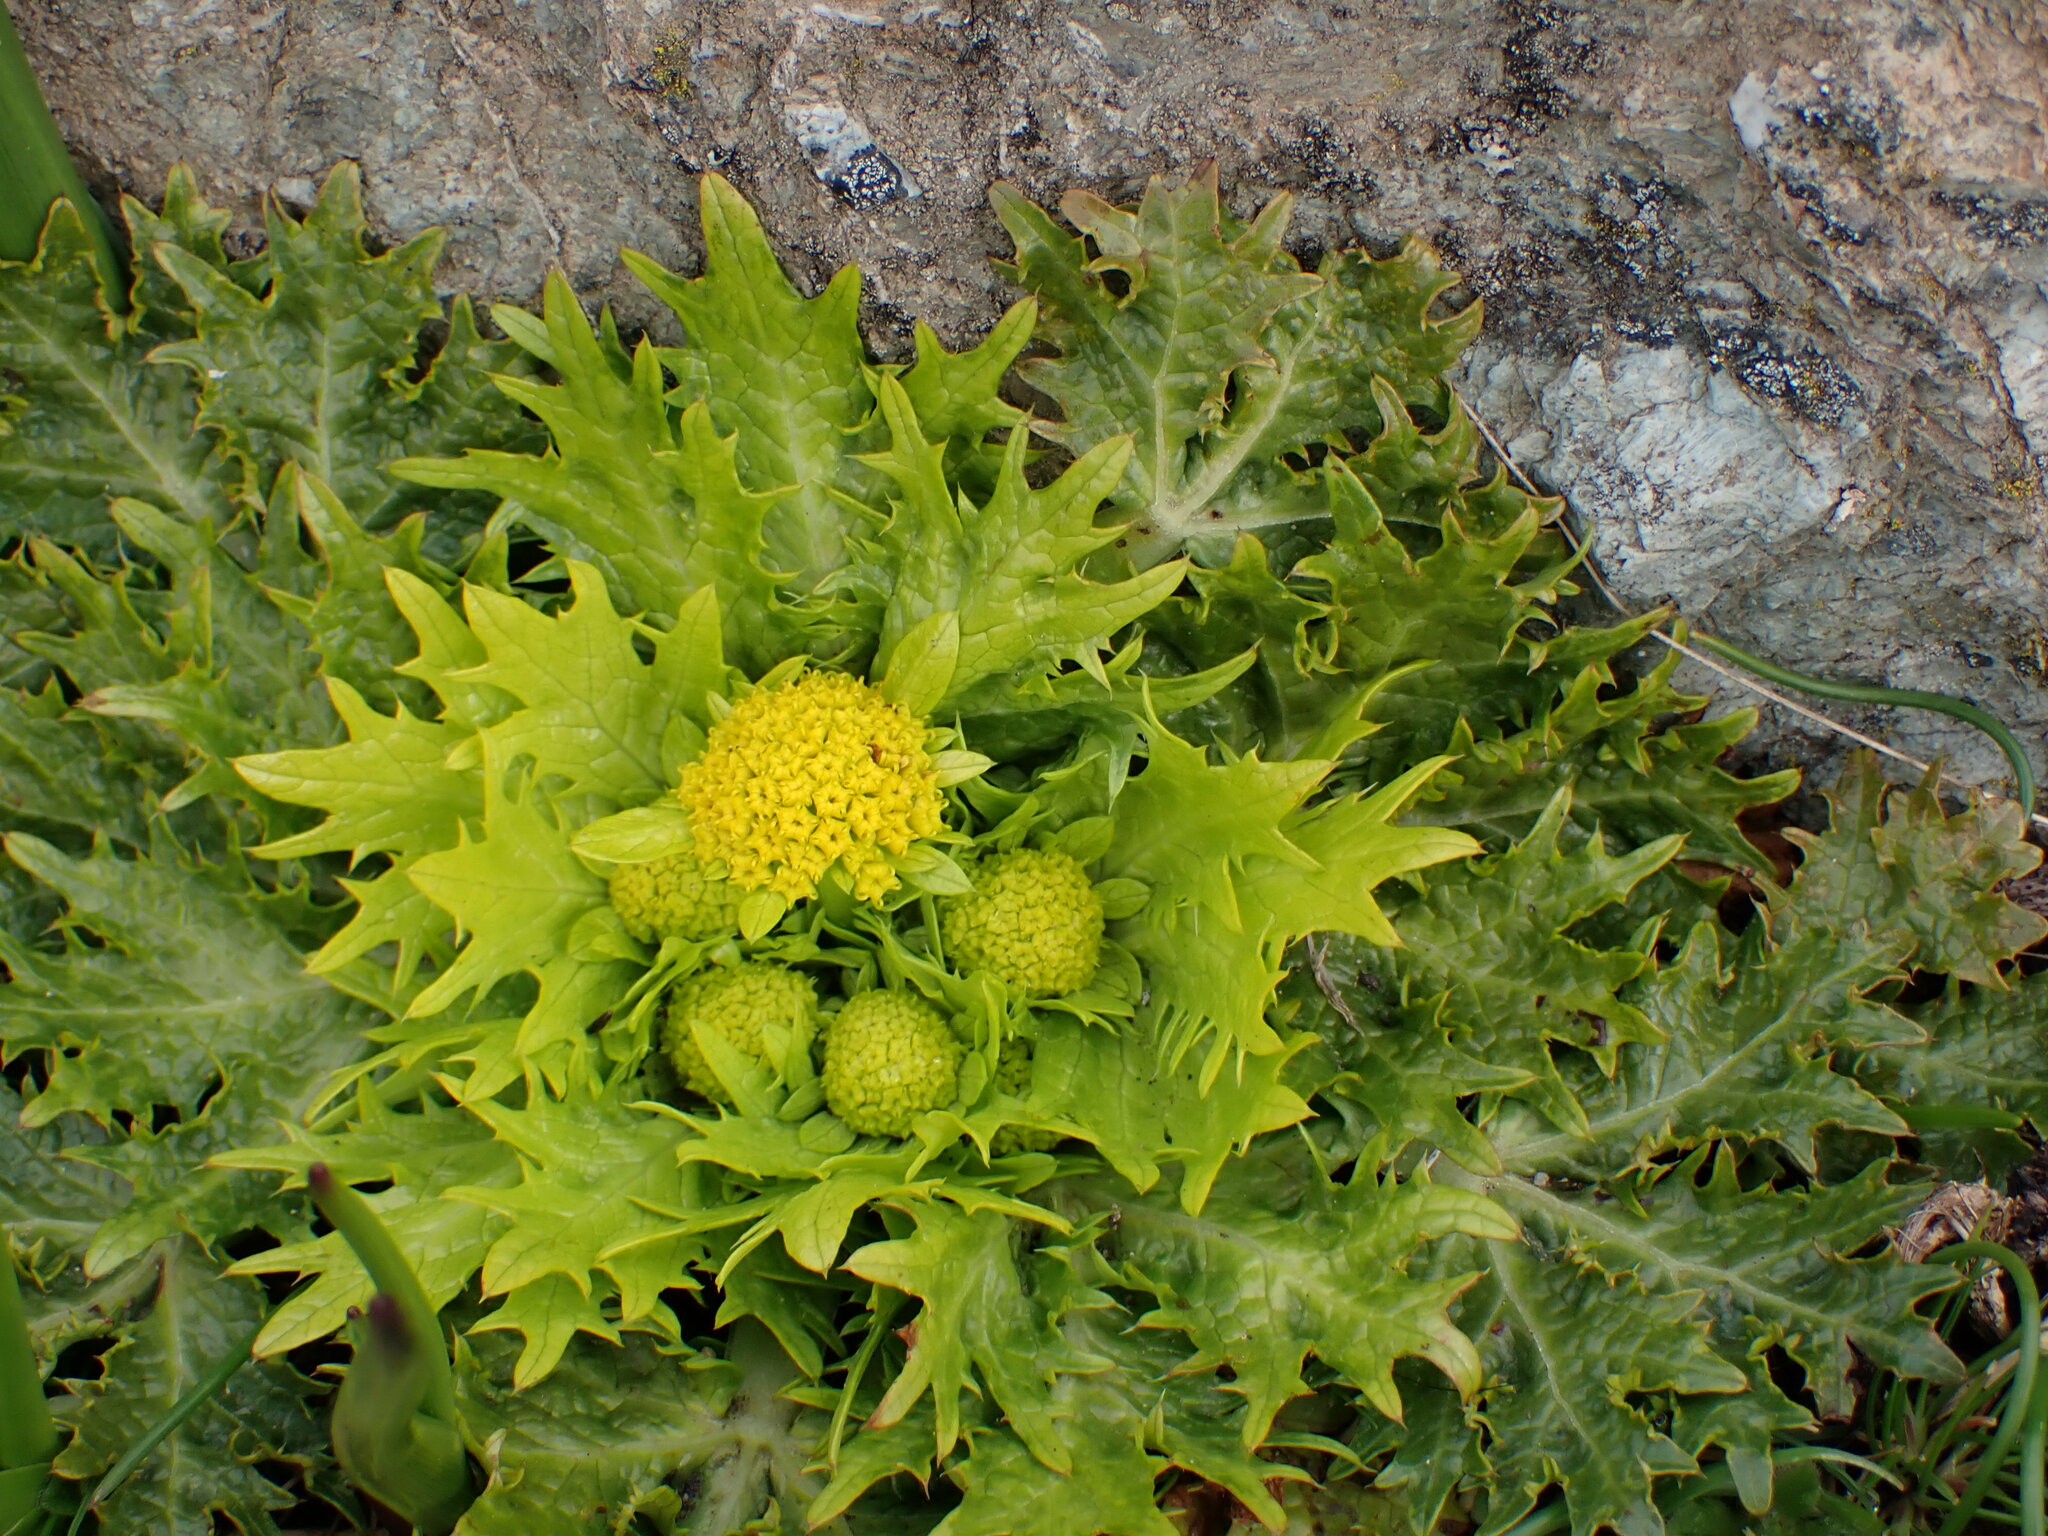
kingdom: Plantae
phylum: Tracheophyta
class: Magnoliopsida
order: Apiales
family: Apiaceae
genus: Sanicula
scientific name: Sanicula arctopoides
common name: Footsteps-of-spring
